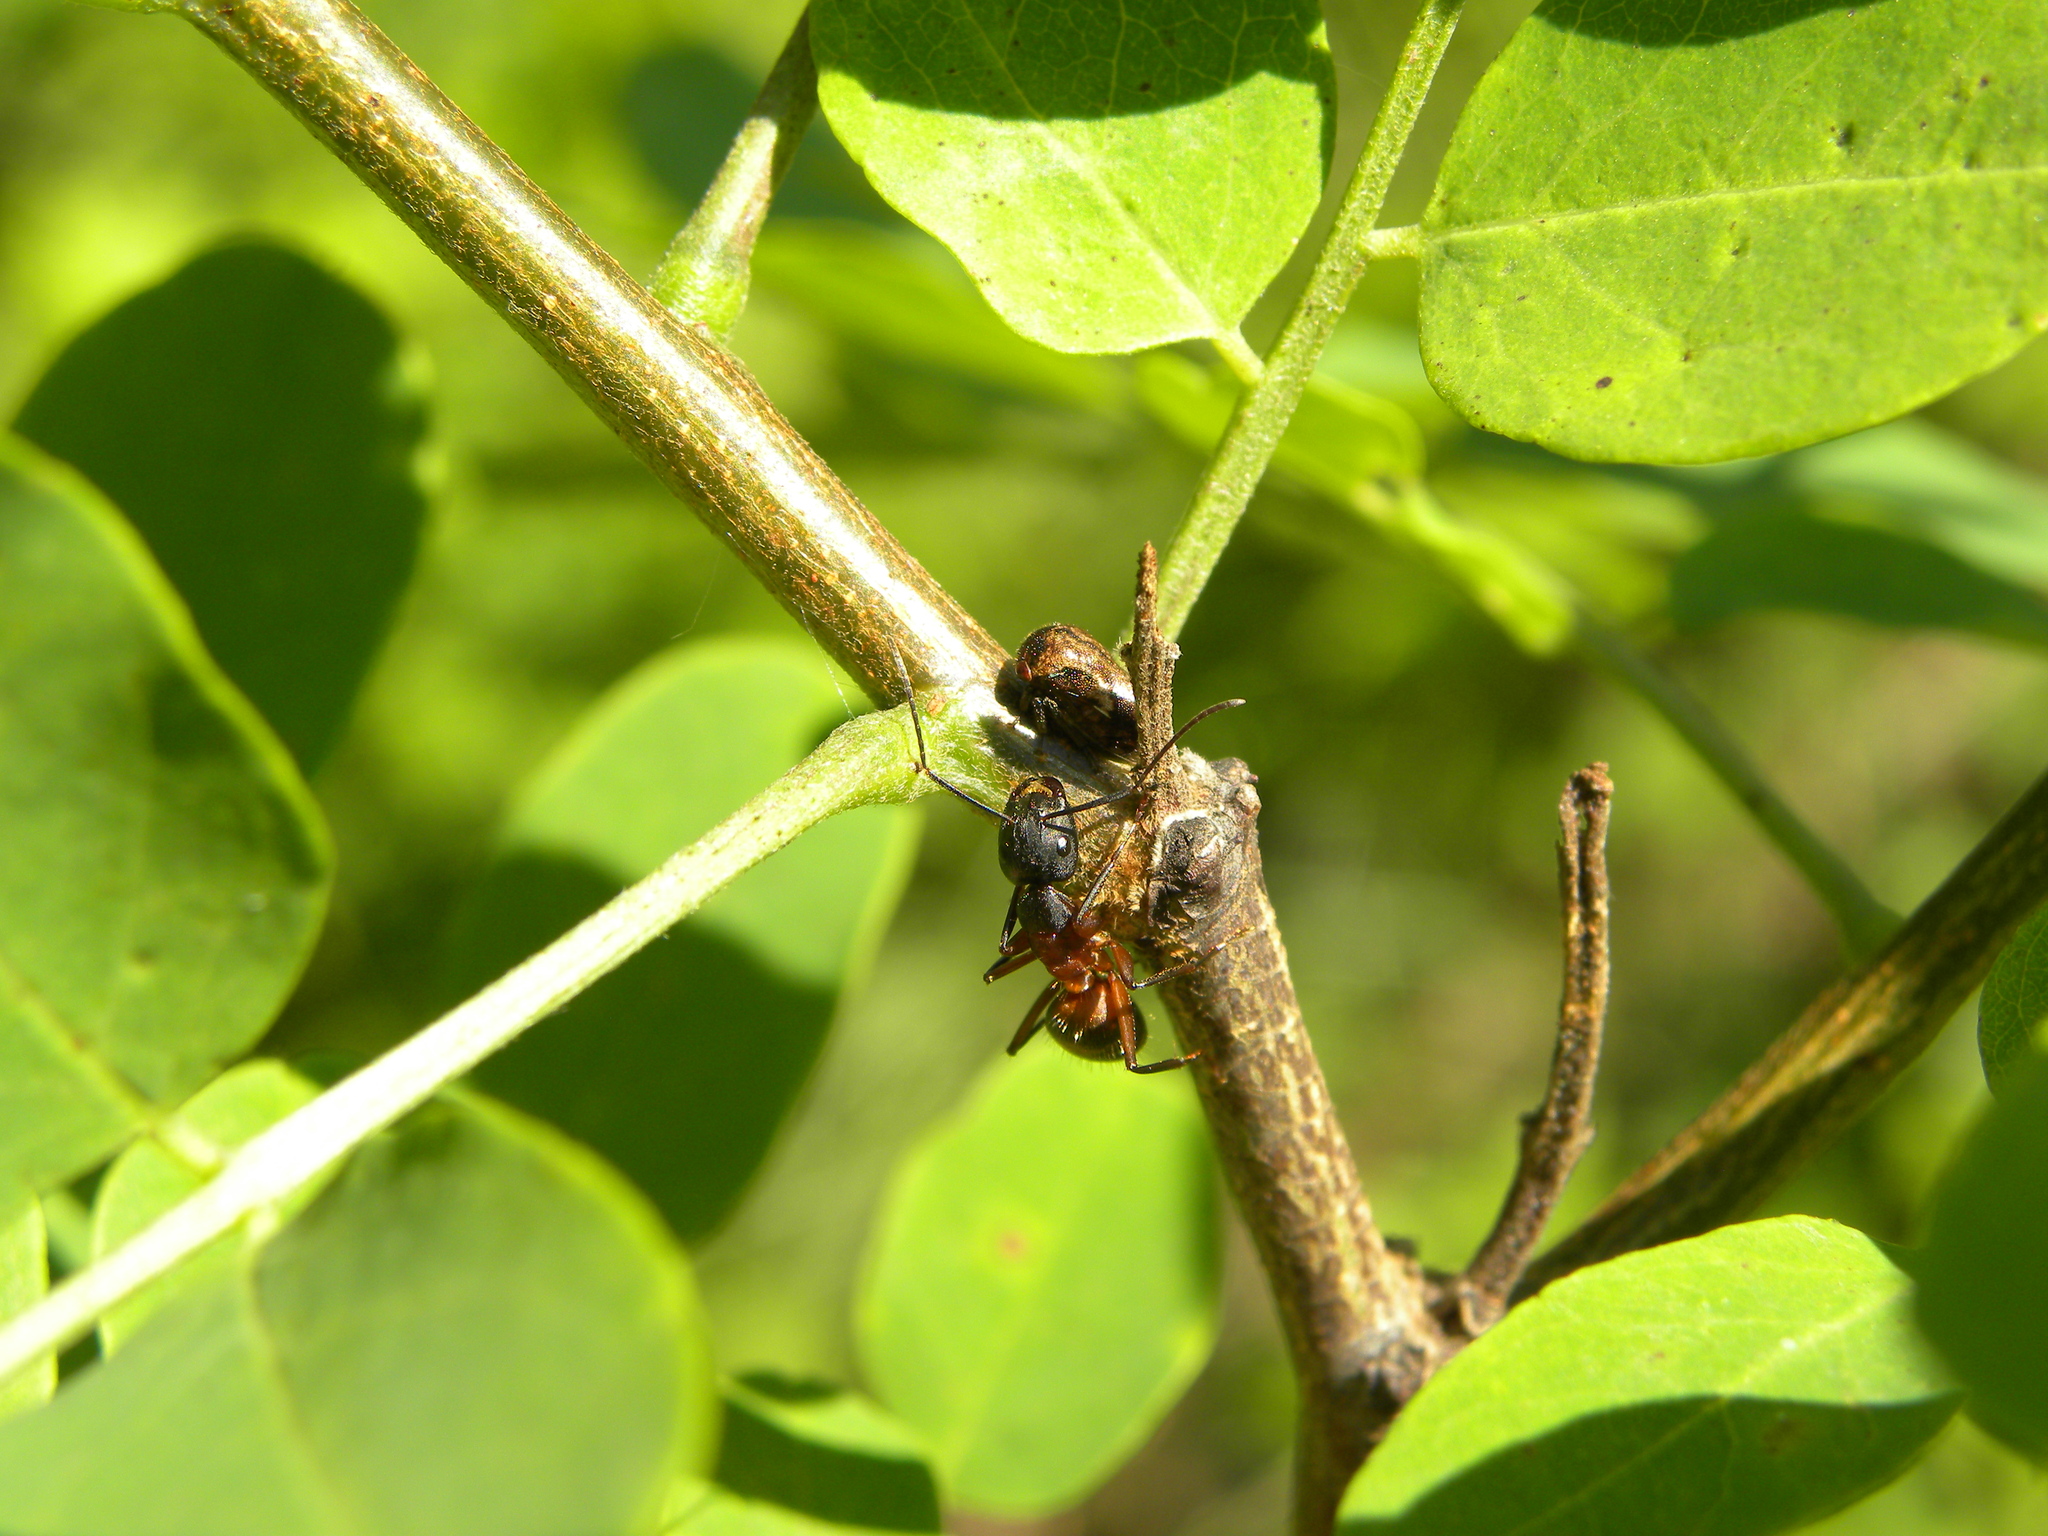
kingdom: Animalia
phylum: Arthropoda
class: Insecta
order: Hymenoptera
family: Formicidae
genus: Camponotus
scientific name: Camponotus chromaiodes
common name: Red carpenter ant
